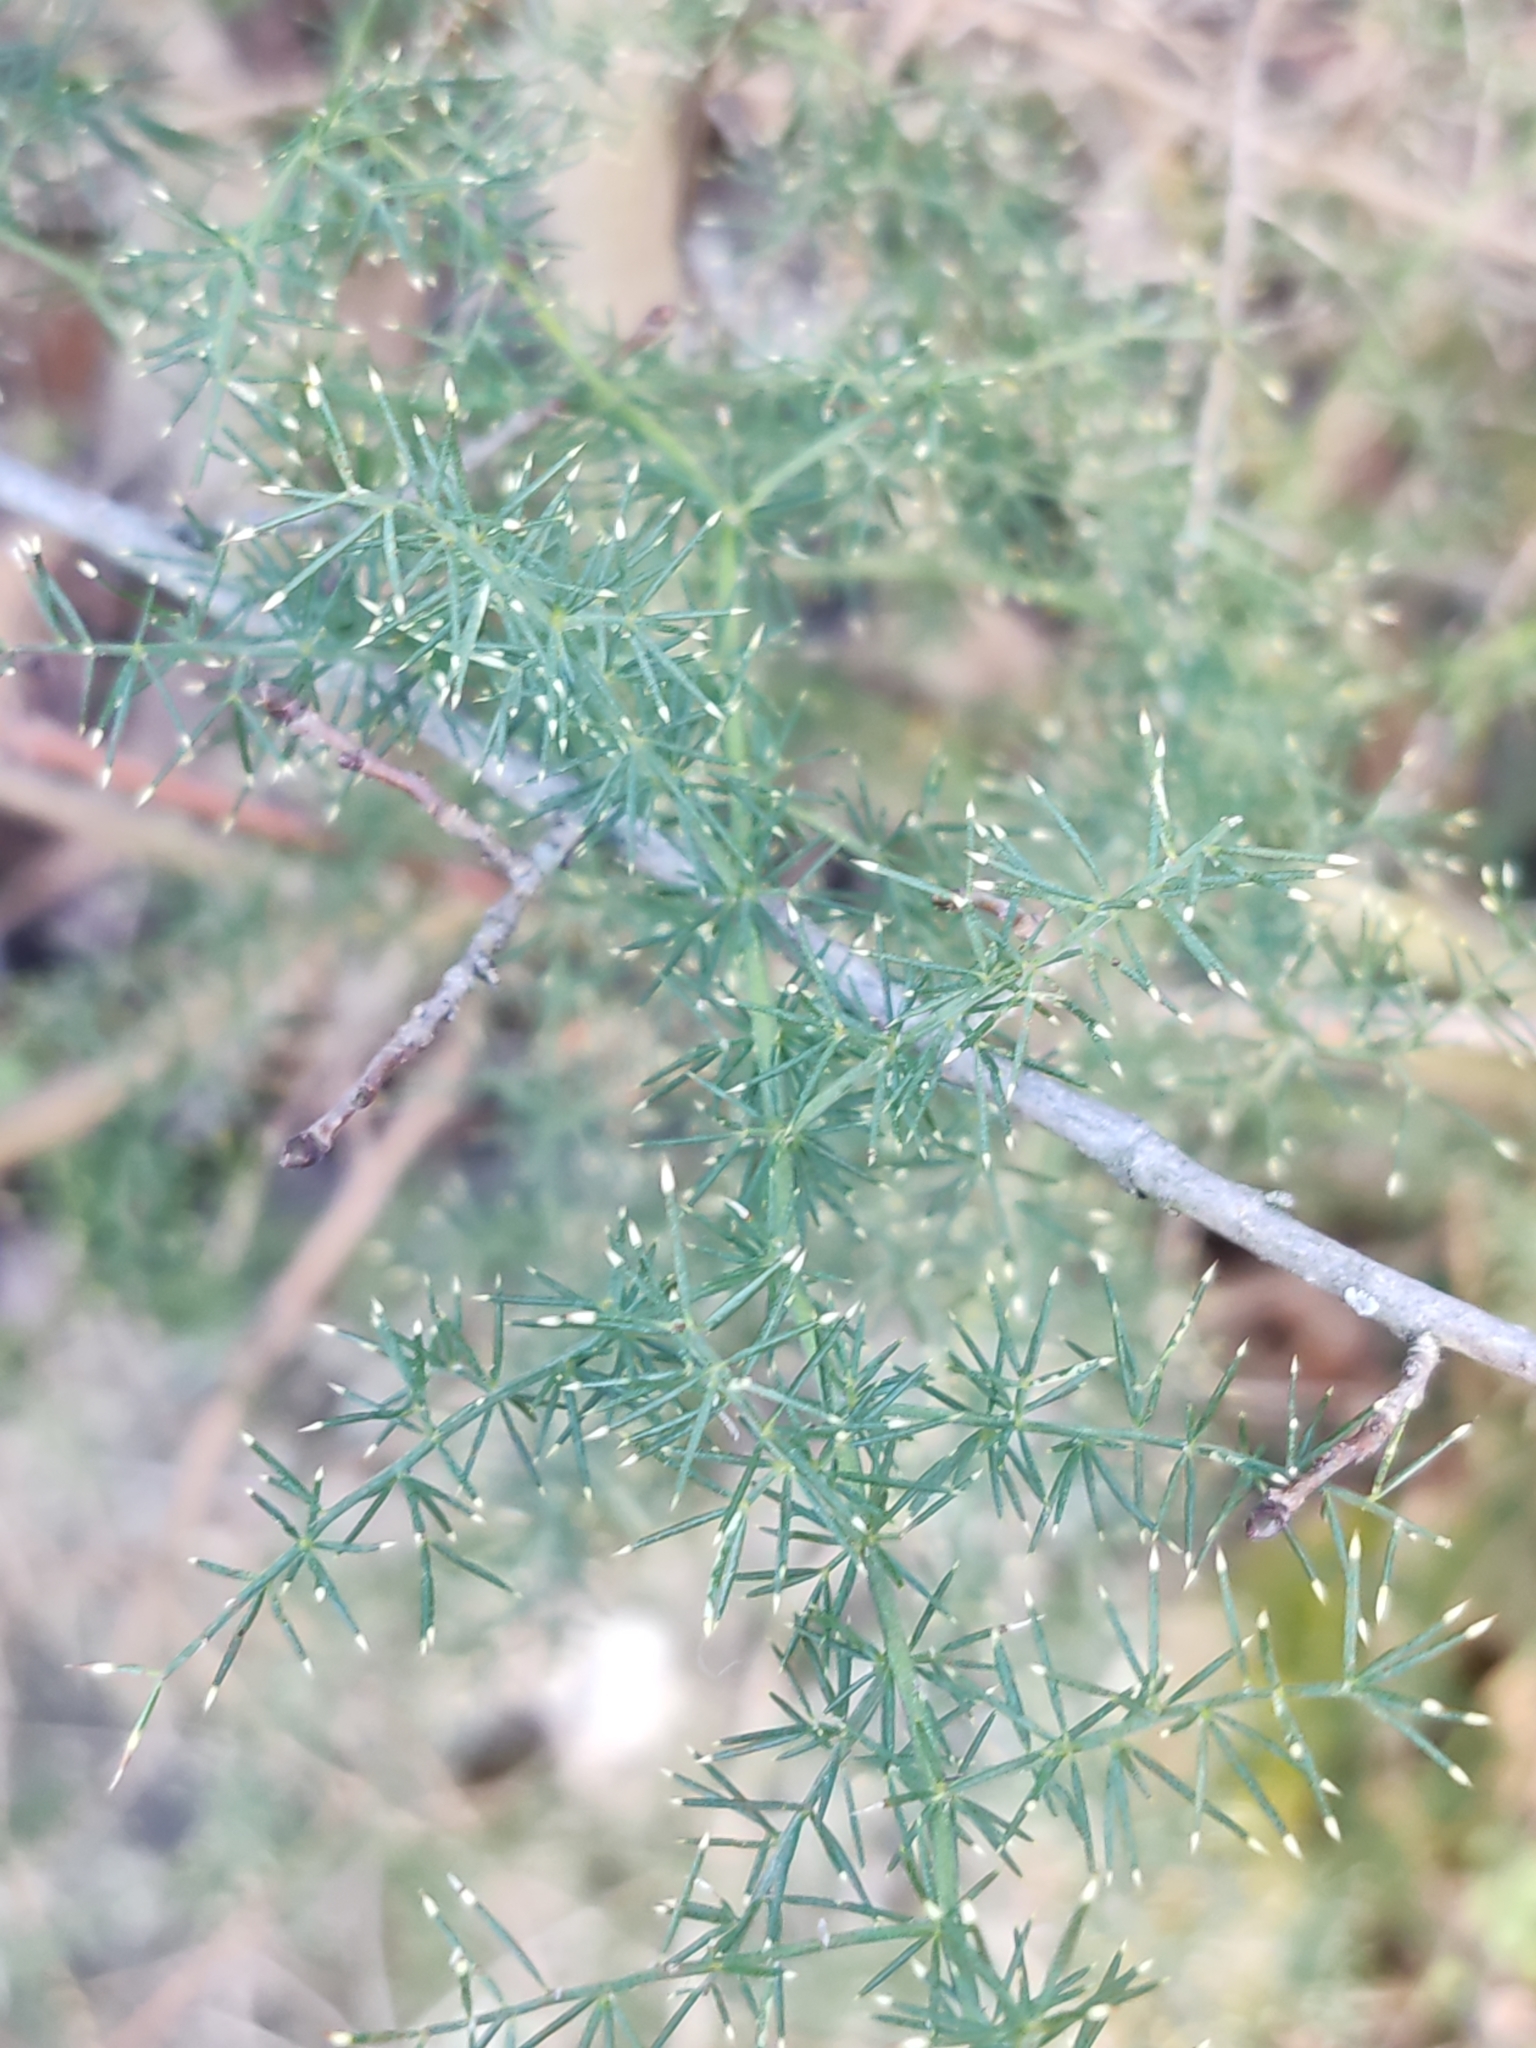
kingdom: Plantae
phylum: Tracheophyta
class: Liliopsida
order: Asparagales
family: Asparagaceae
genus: Asparagus
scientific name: Asparagus acutifolius
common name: Wild asparagus
